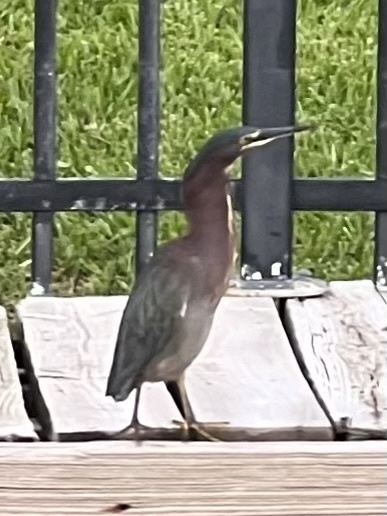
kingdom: Animalia
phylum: Chordata
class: Aves
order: Pelecaniformes
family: Ardeidae
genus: Butorides
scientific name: Butorides virescens
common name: Green heron
